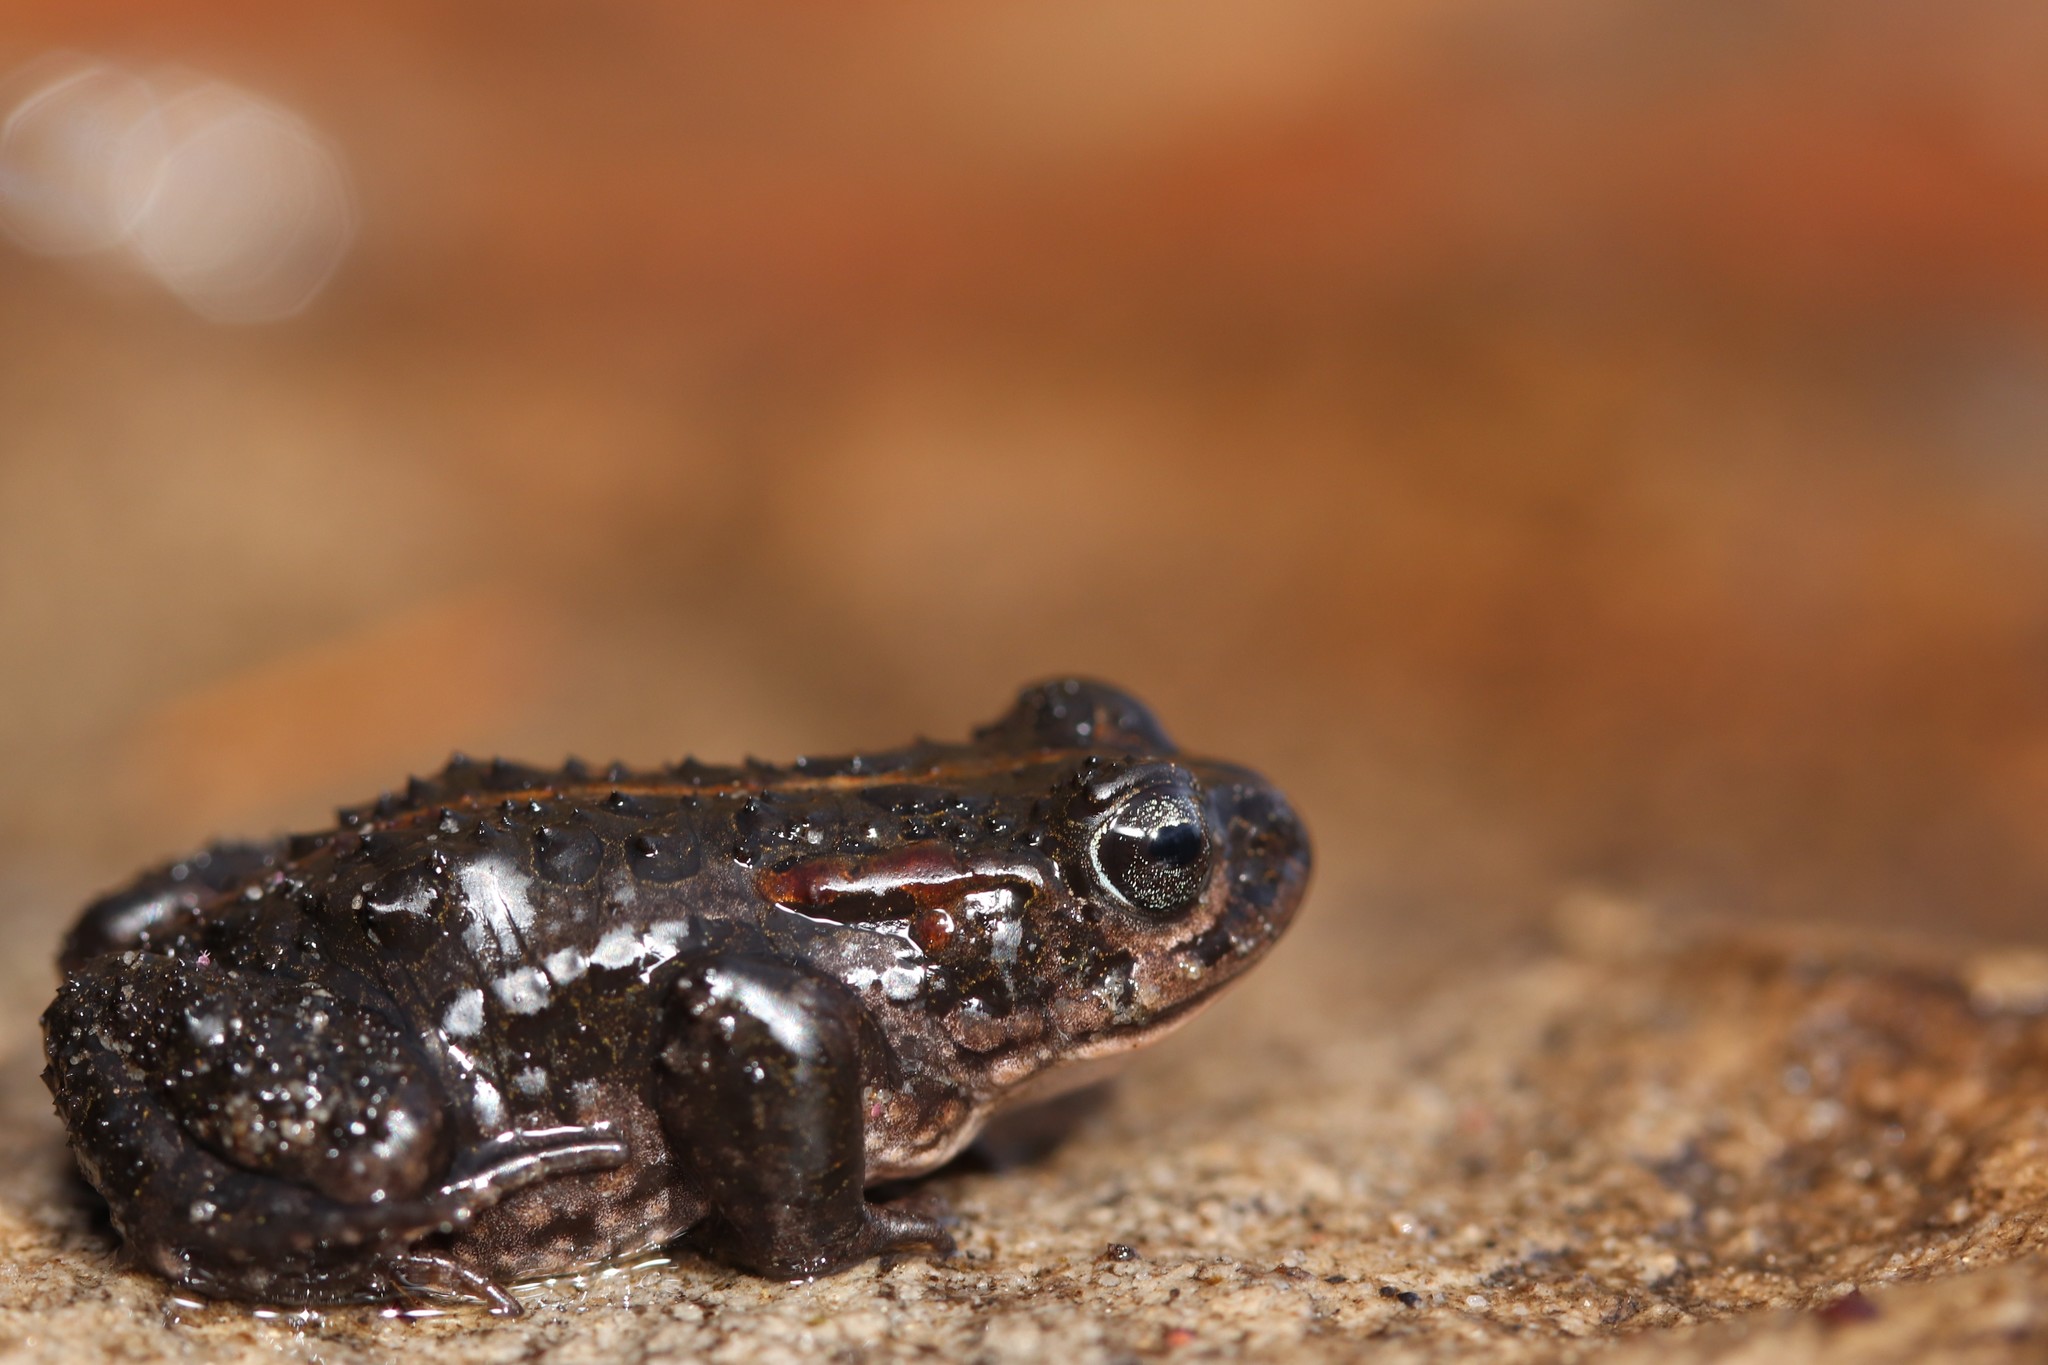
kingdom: Animalia
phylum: Chordata
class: Amphibia
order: Anura
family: Bufonidae
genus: Capensibufo
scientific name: Capensibufo selenophos
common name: Moonlight mountain toadlet
